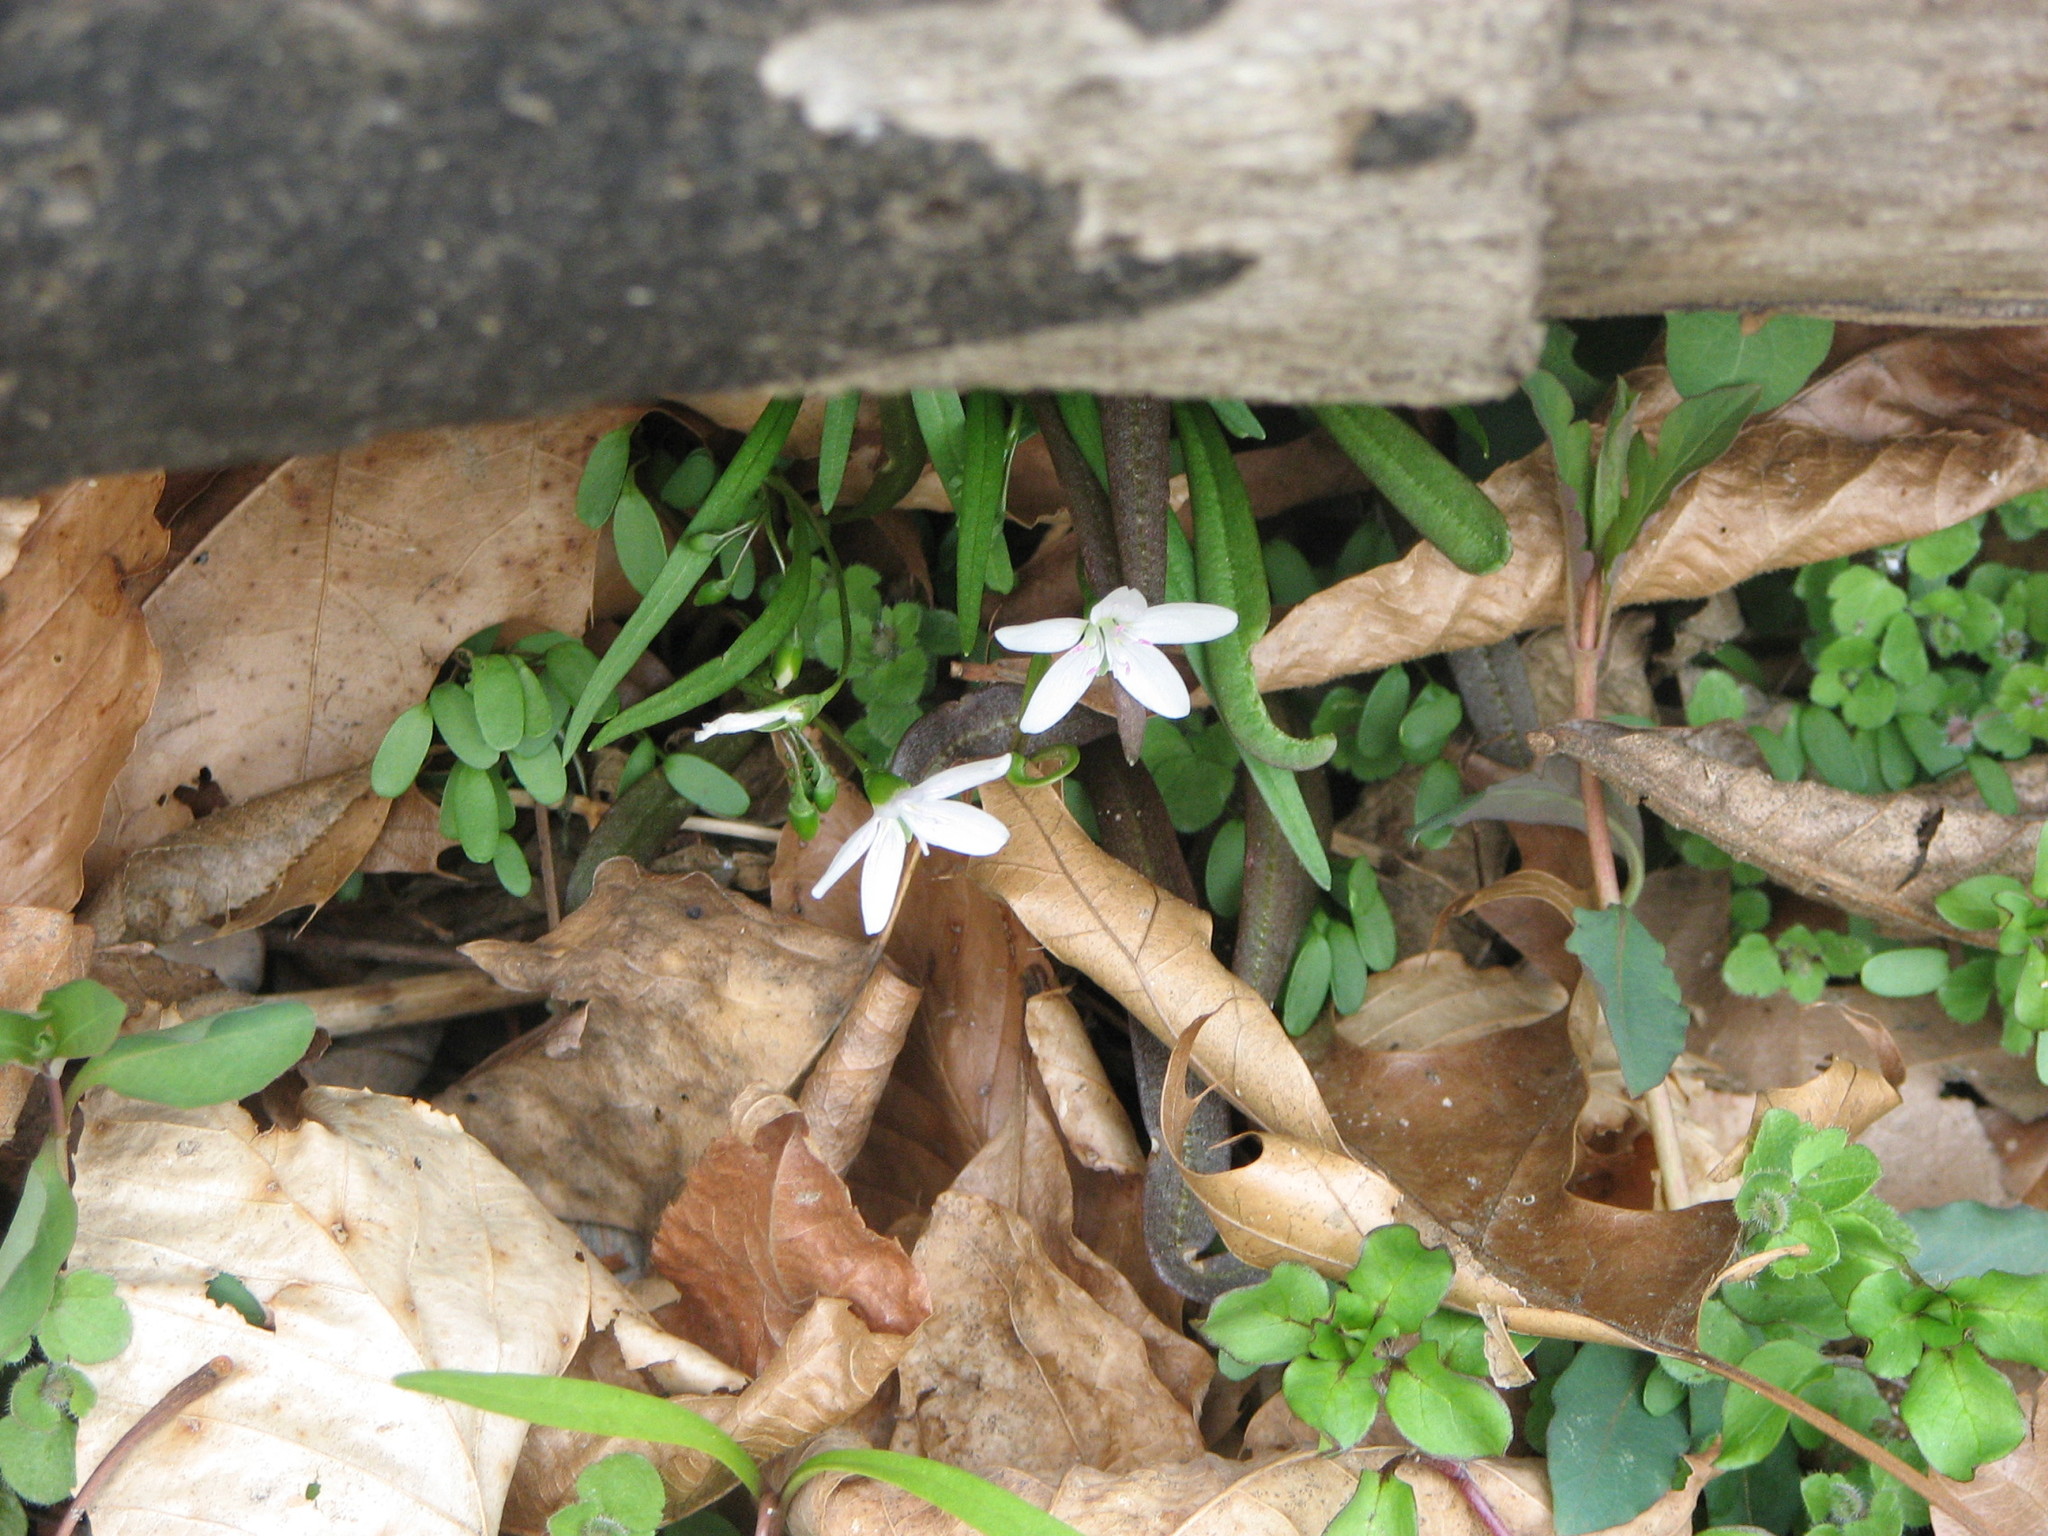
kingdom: Plantae
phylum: Tracheophyta
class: Magnoliopsida
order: Caryophyllales
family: Montiaceae
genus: Claytonia
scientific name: Claytonia virginica
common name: Virginia springbeauty
